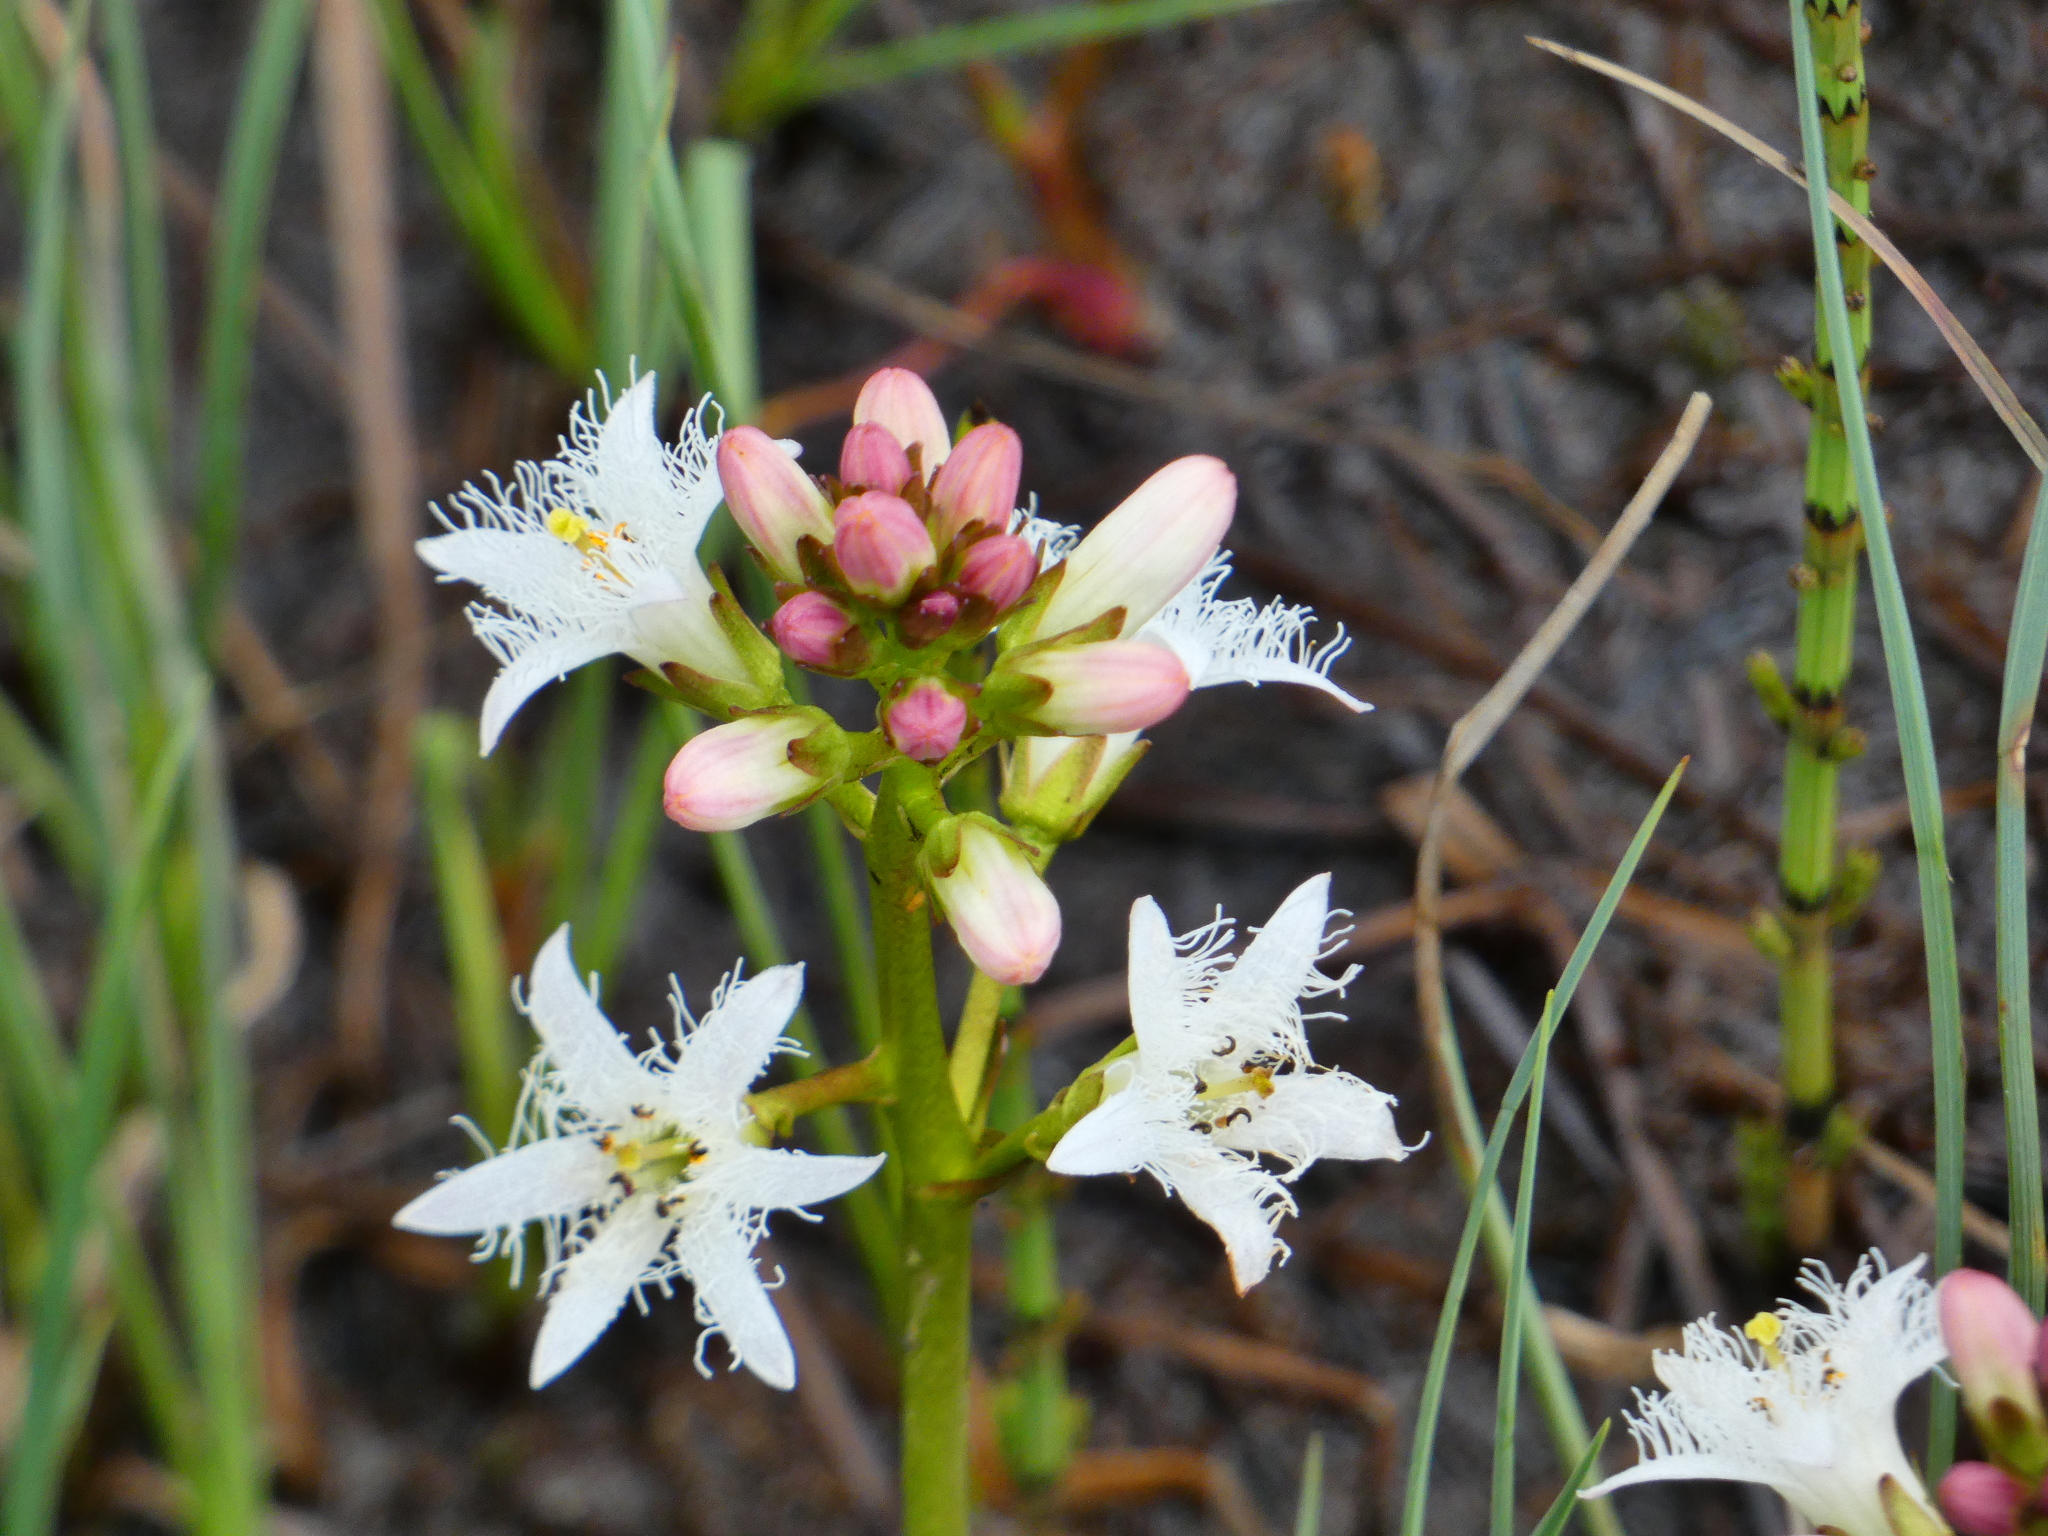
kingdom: Plantae
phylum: Tracheophyta
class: Magnoliopsida
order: Asterales
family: Menyanthaceae
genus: Menyanthes
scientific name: Menyanthes trifoliata
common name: Bogbean
